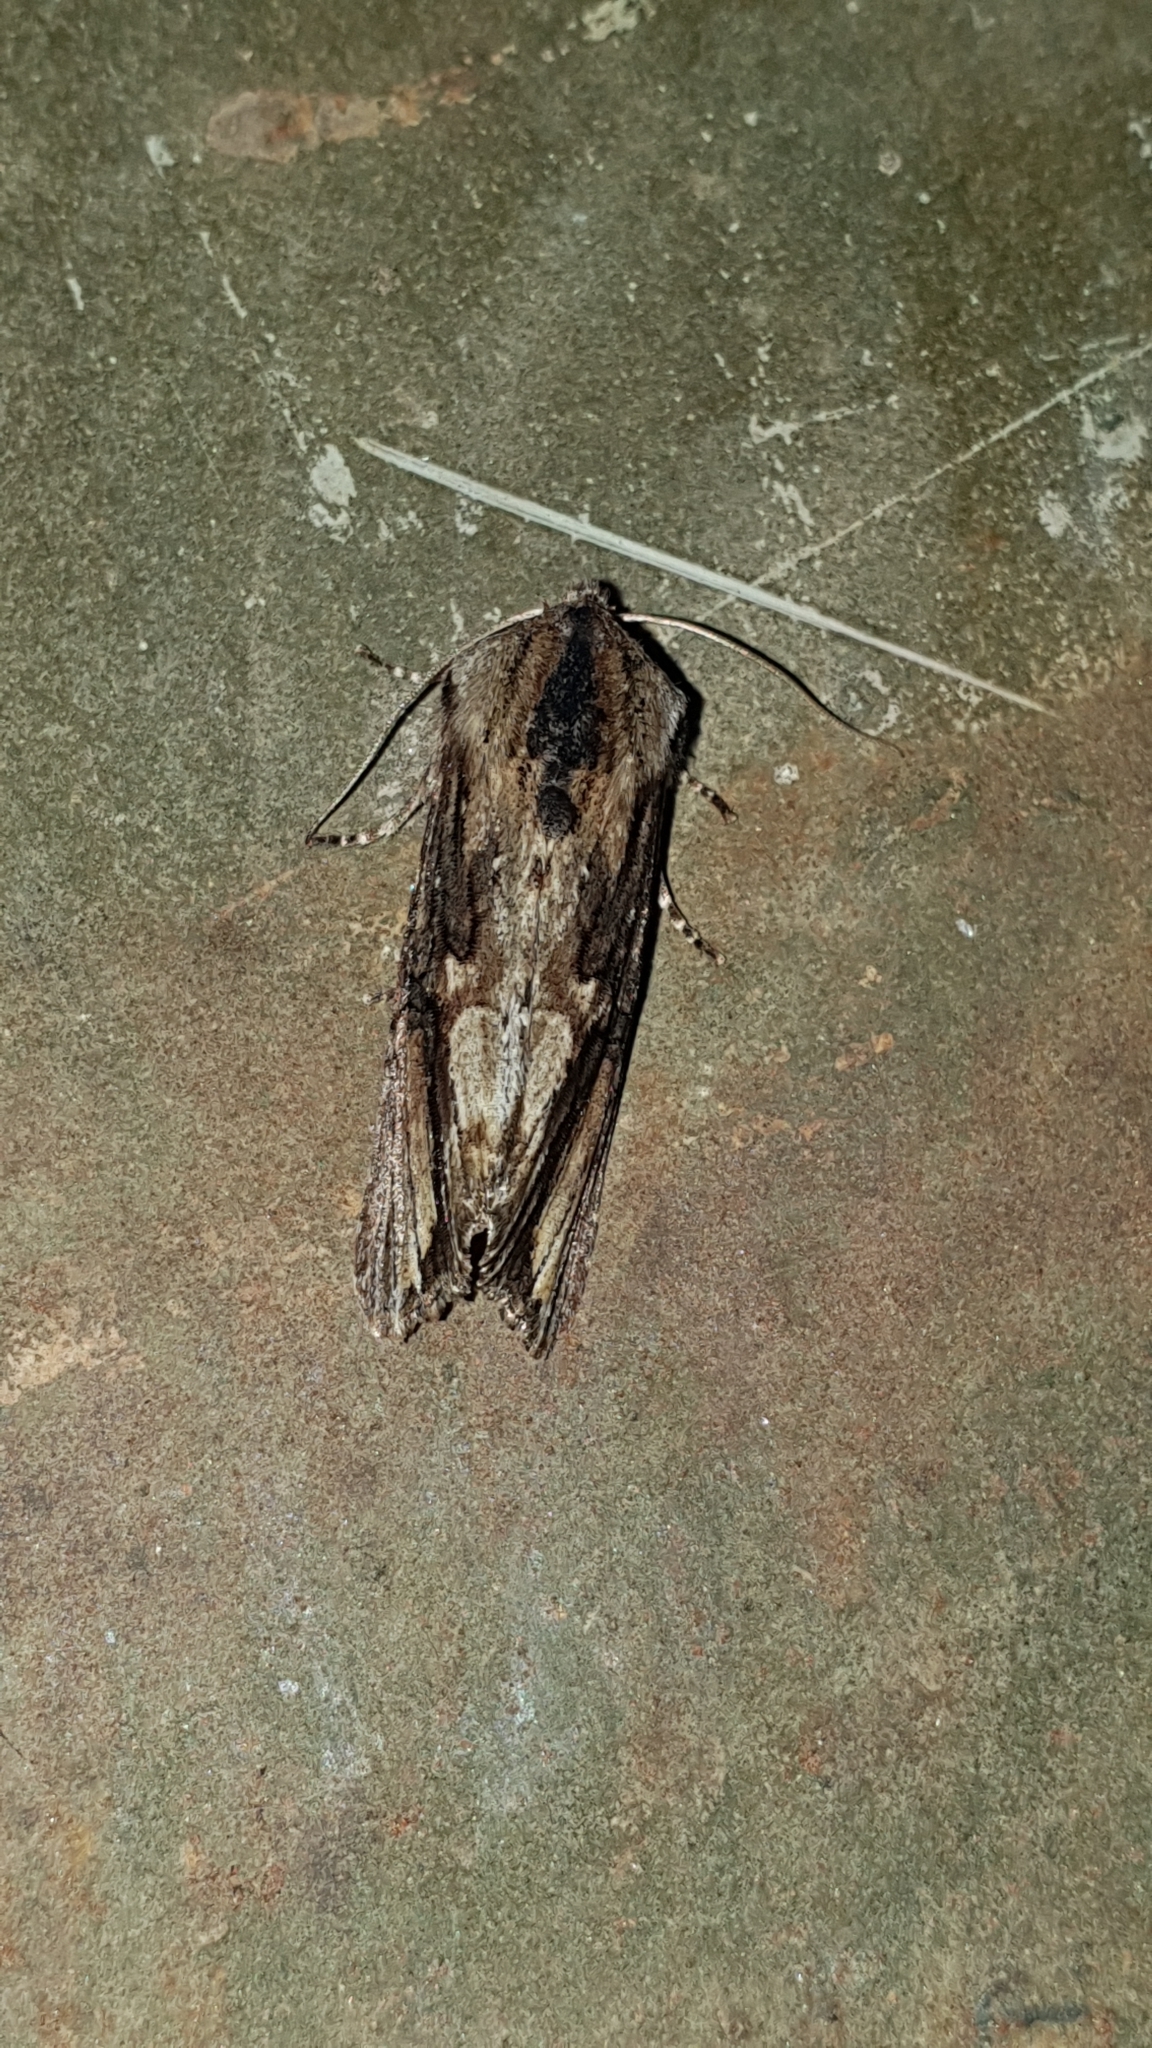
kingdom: Animalia
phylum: Arthropoda
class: Insecta
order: Lepidoptera
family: Noctuidae
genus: Egira
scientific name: Egira conspicillaris
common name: Silver cloud
